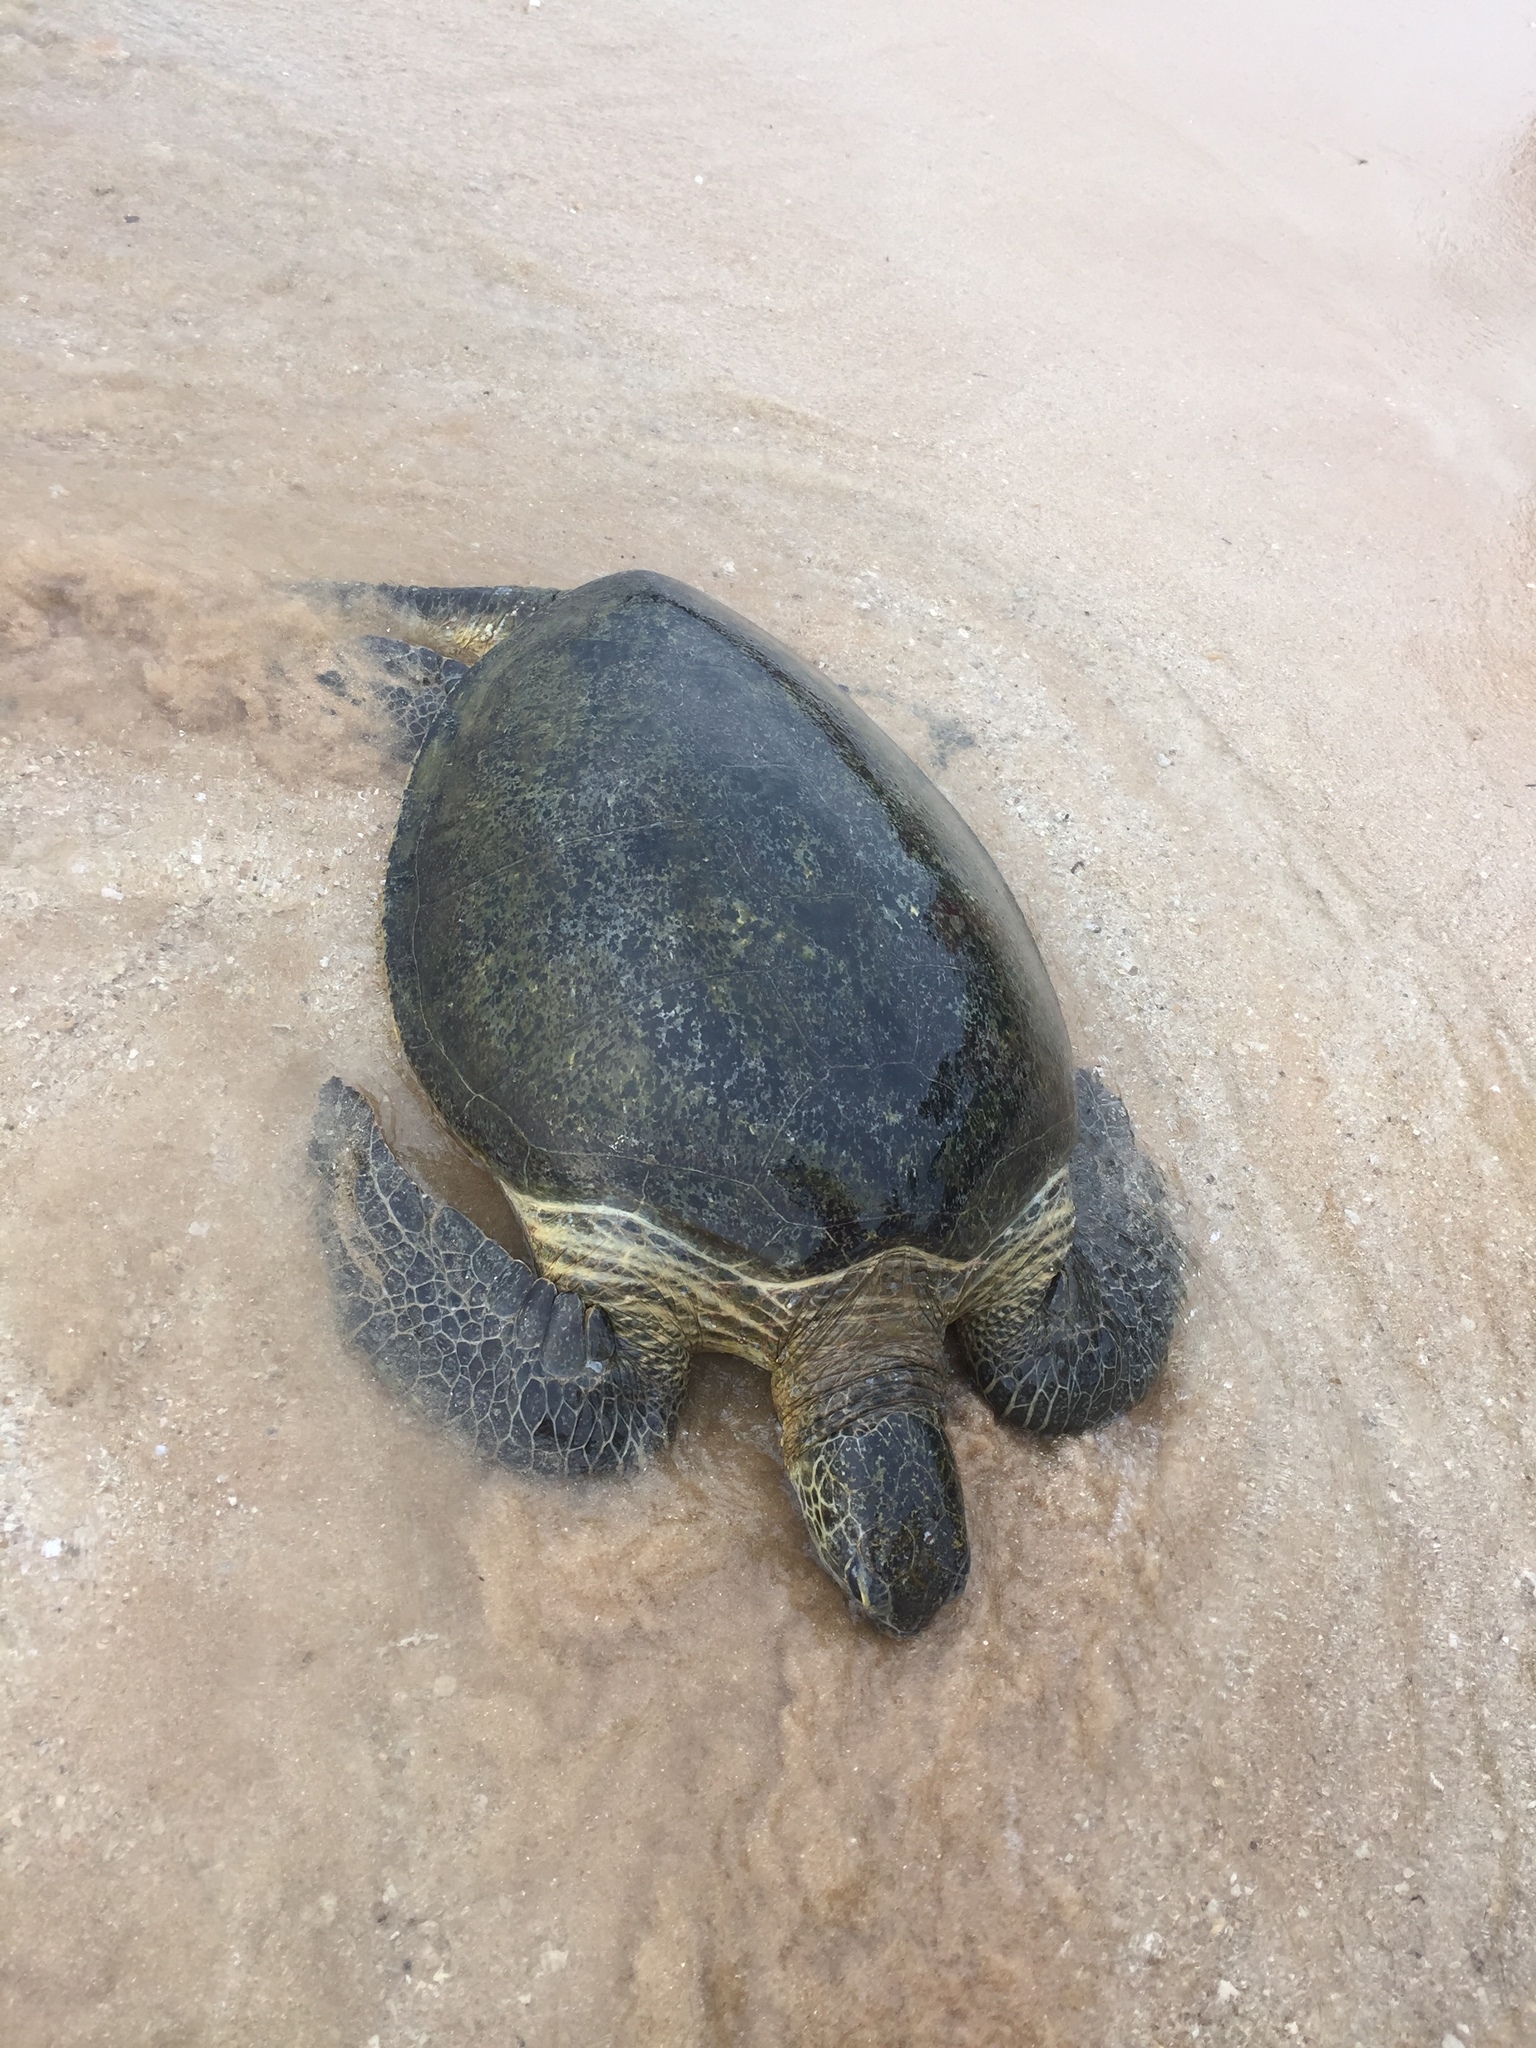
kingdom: Animalia
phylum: Chordata
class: Testudines
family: Cheloniidae
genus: Chelonia
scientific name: Chelonia mydas
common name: Green turtle
